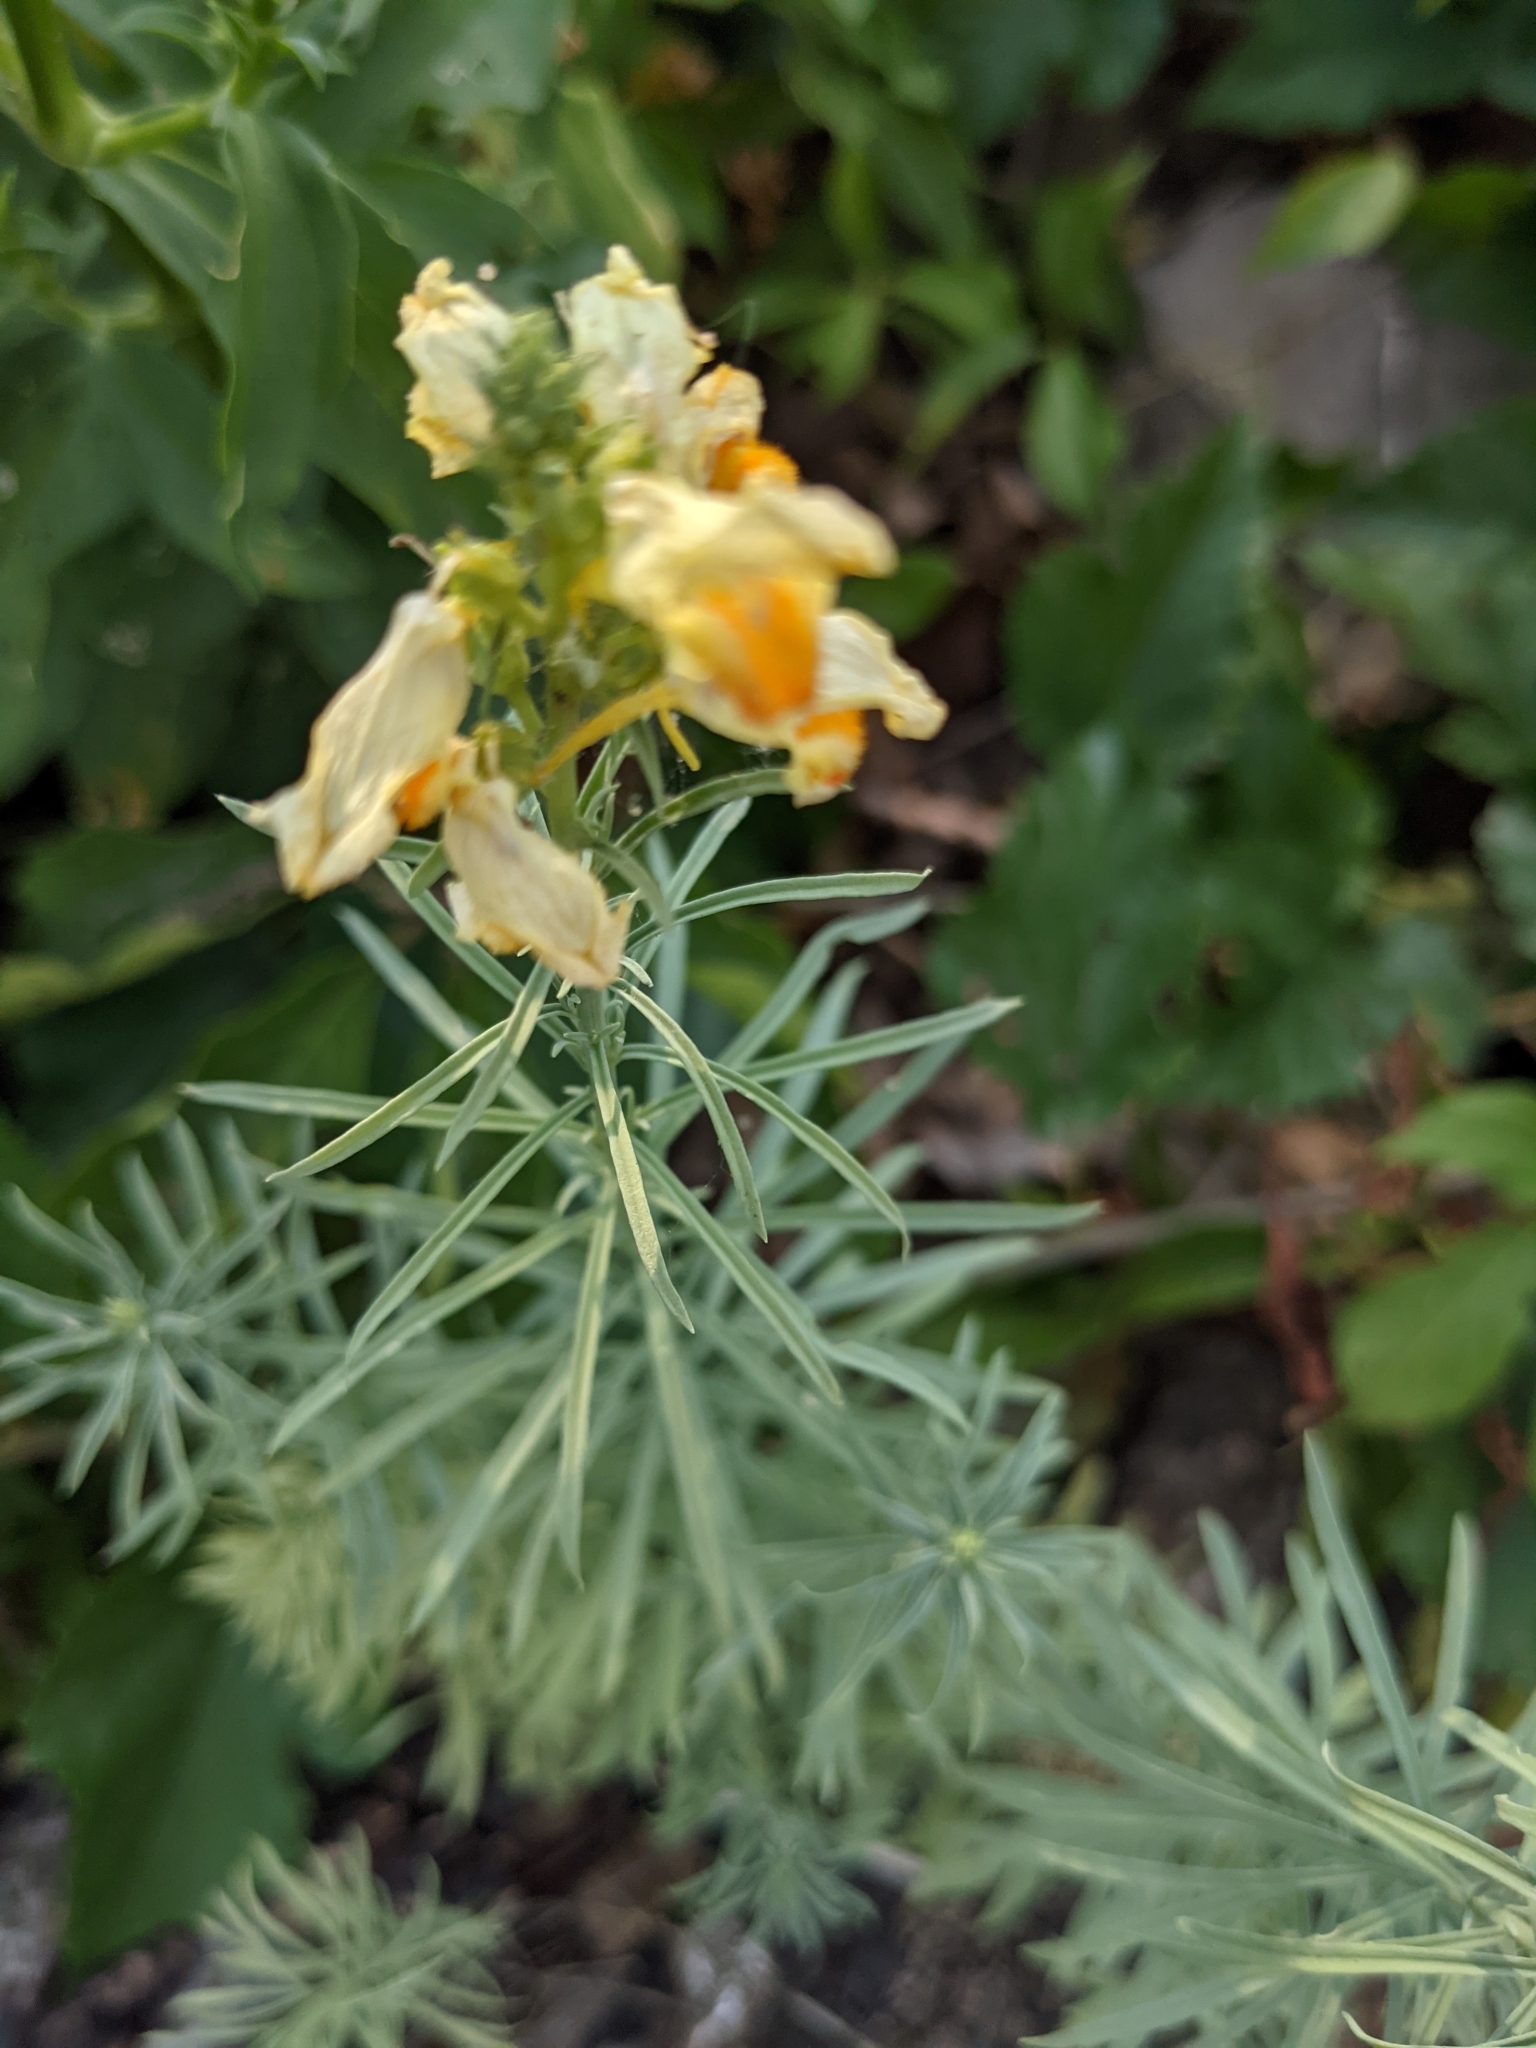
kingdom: Plantae
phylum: Tracheophyta
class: Magnoliopsida
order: Lamiales
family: Plantaginaceae
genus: Linaria
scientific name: Linaria vulgaris
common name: Butter and eggs
